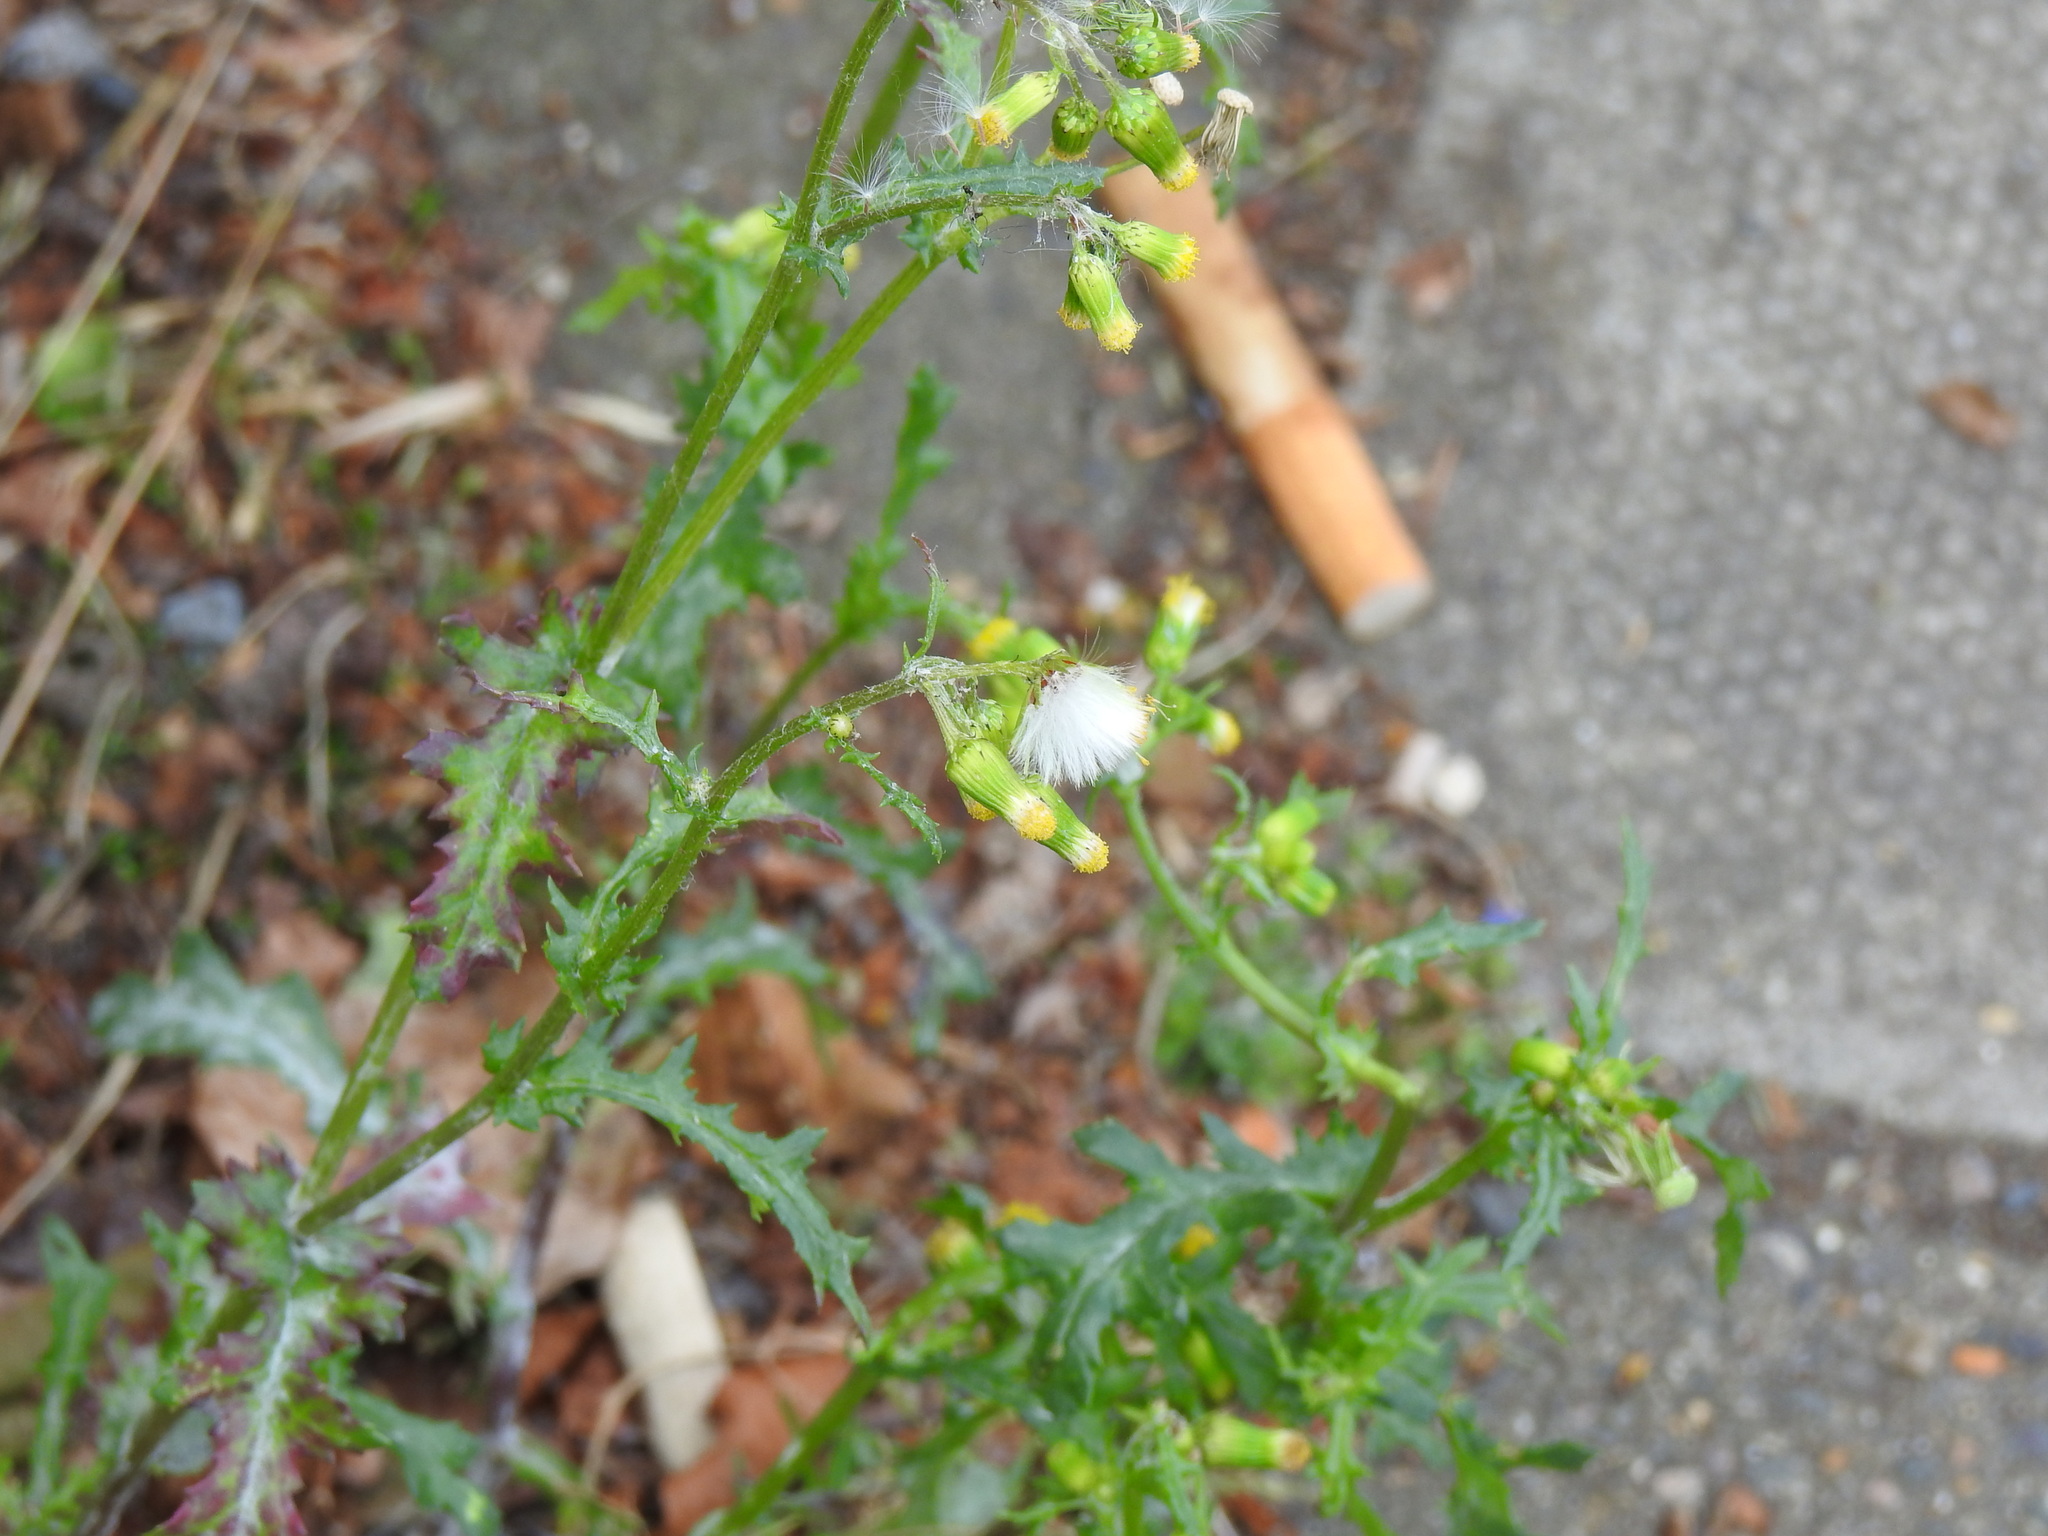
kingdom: Plantae
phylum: Tracheophyta
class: Magnoliopsida
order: Asterales
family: Asteraceae
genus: Senecio
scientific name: Senecio vulgaris
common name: Old-man-in-the-spring
